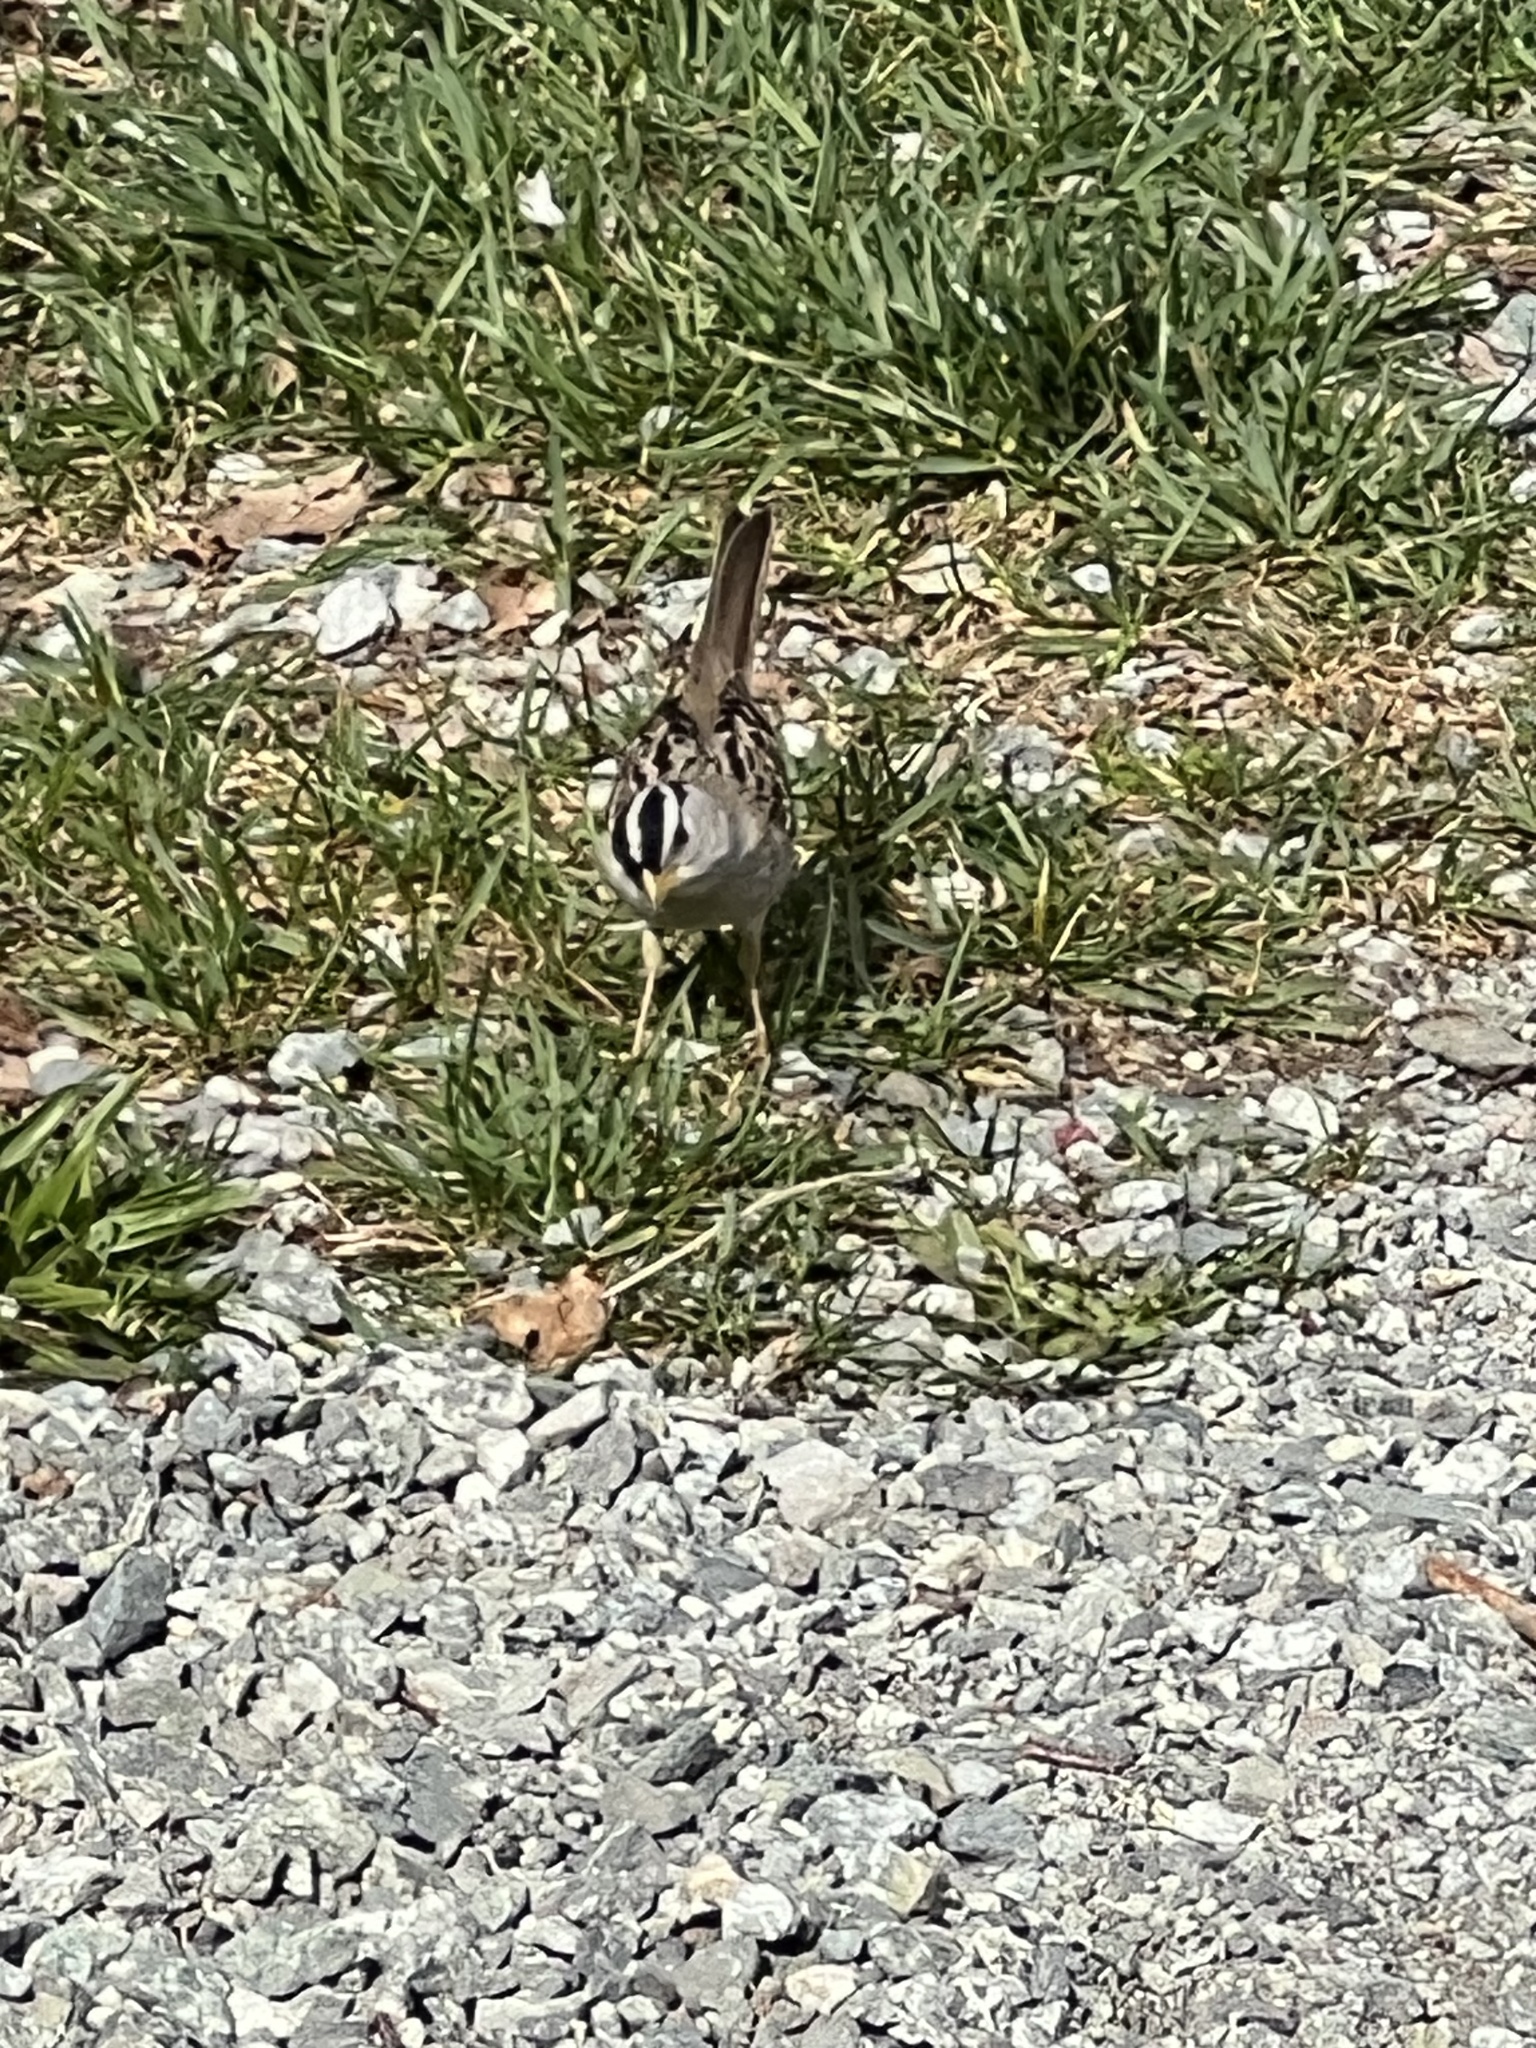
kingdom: Animalia
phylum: Chordata
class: Aves
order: Passeriformes
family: Passerellidae
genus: Zonotrichia
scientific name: Zonotrichia leucophrys
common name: White-crowned sparrow
